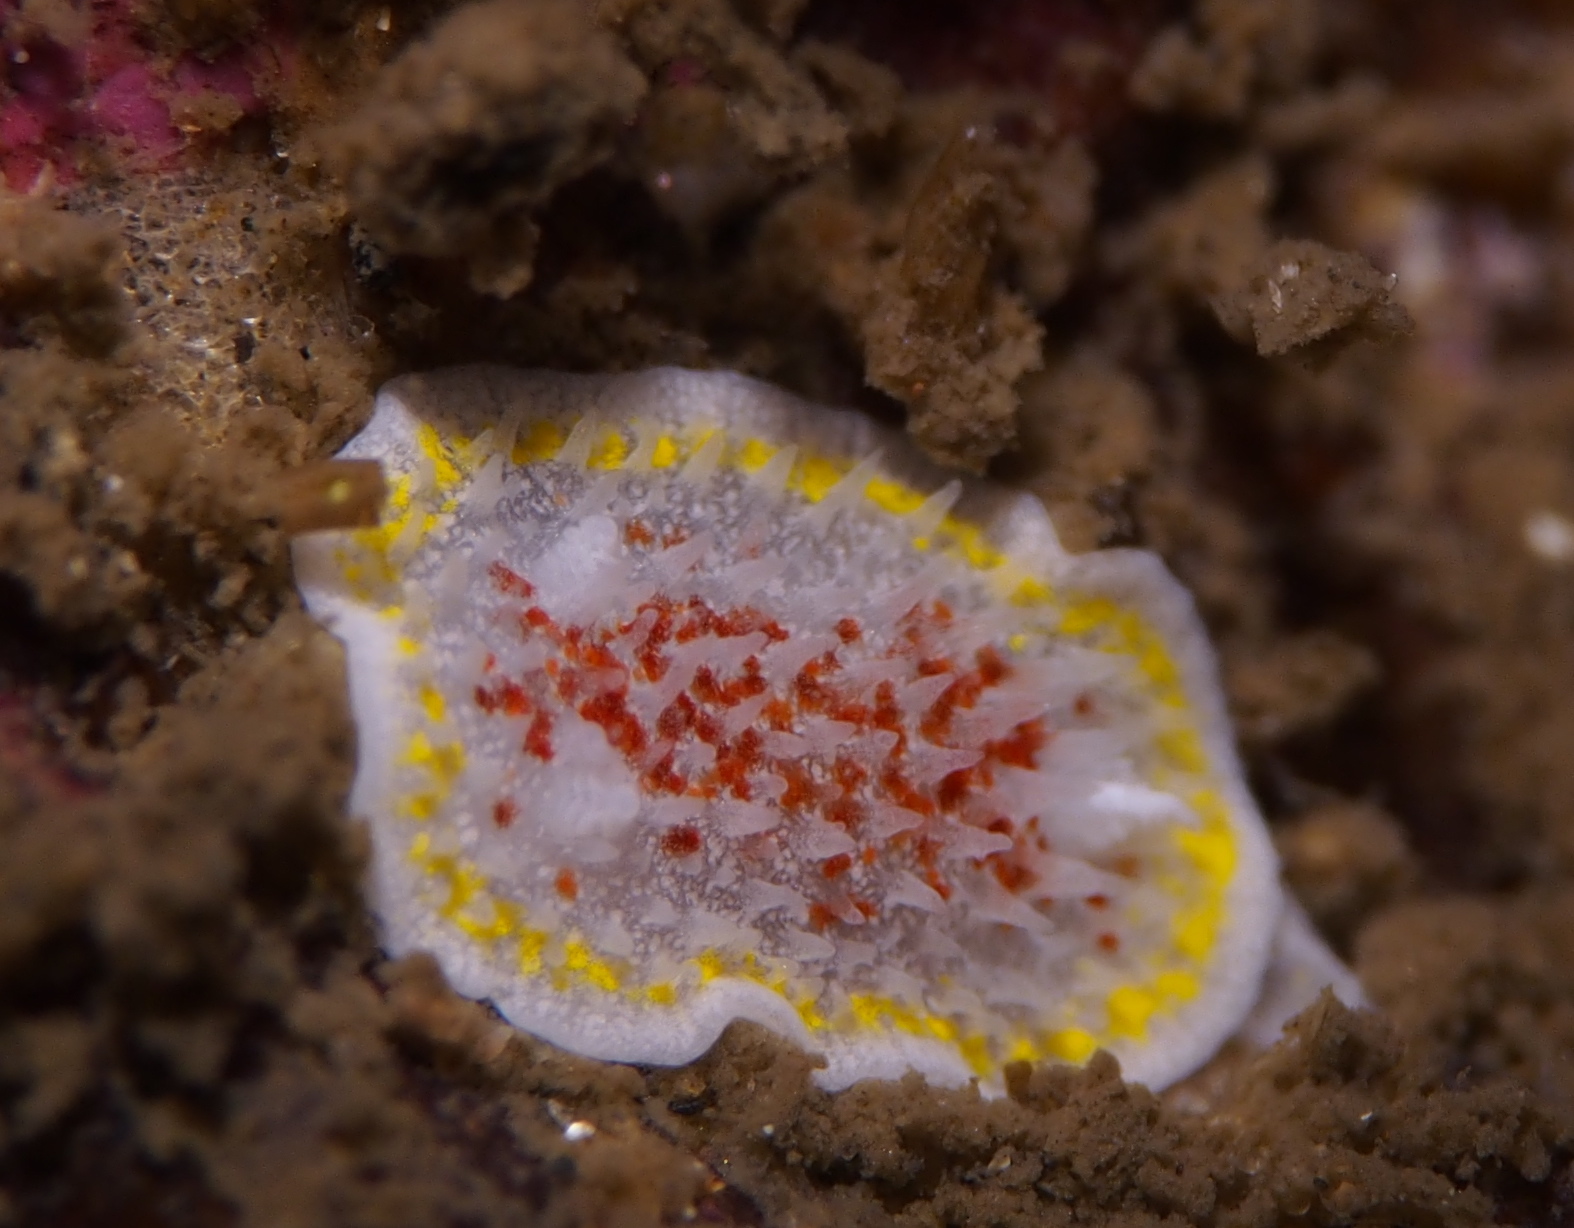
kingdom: Animalia
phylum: Mollusca
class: Gastropoda
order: Nudibranchia
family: Calycidorididae
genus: Diaphorodoris
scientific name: Diaphorodoris luteocincta
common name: Fried egg nudibranch
